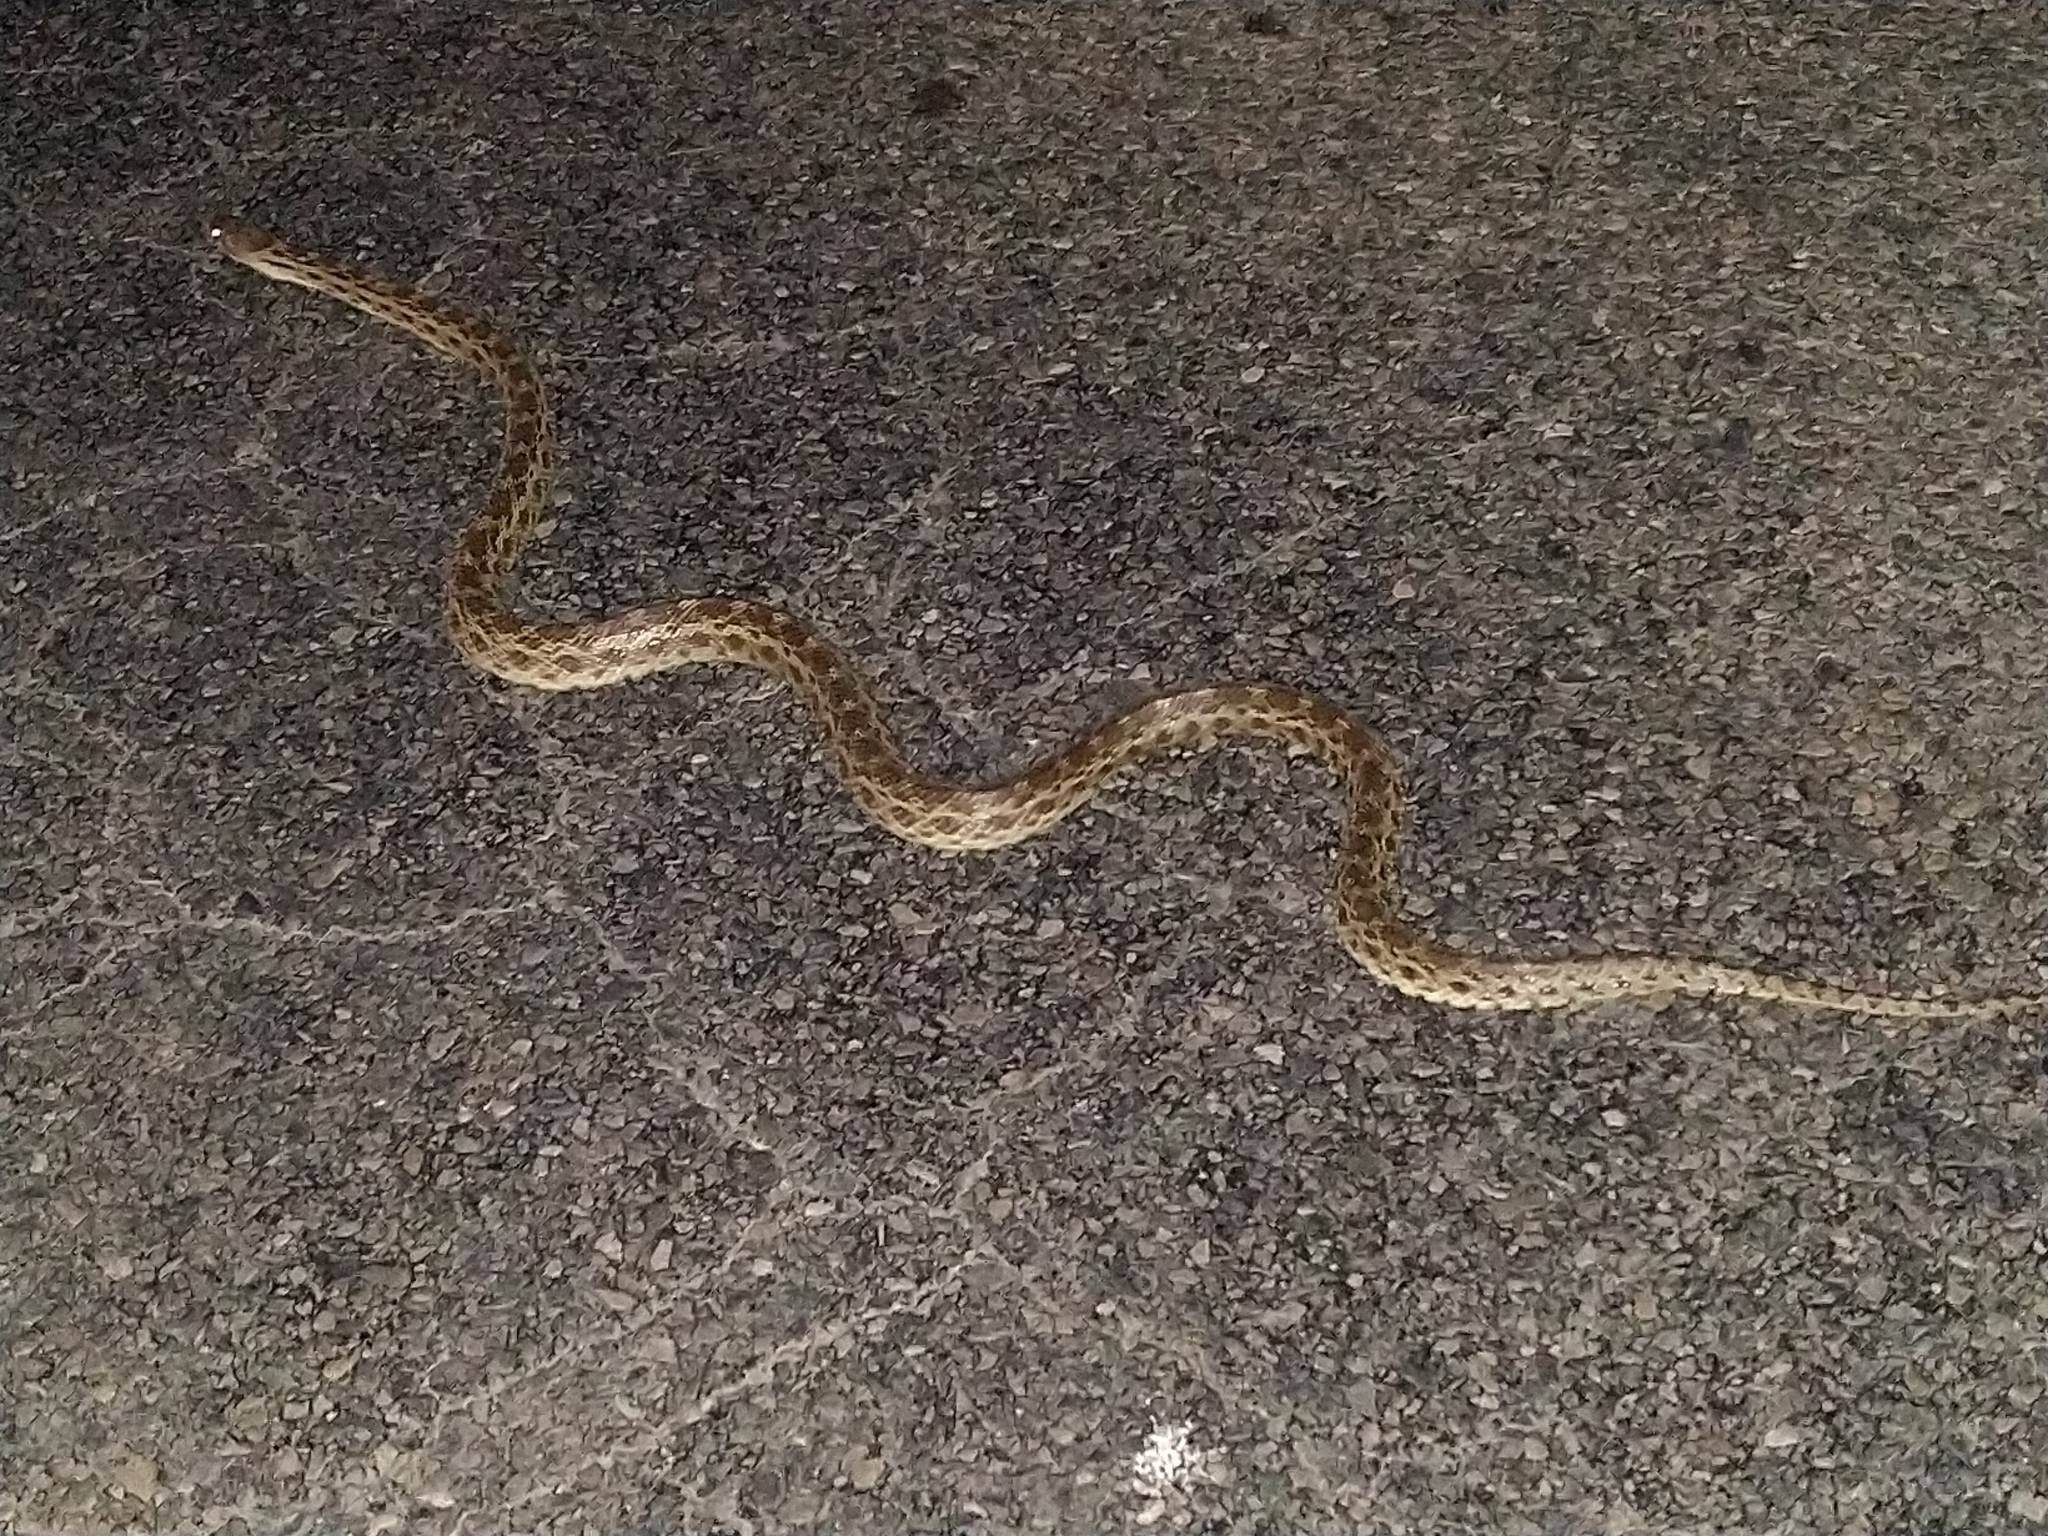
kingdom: Animalia
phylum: Chordata
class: Squamata
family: Colubridae
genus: Pituophis
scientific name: Pituophis catenifer
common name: Gopher snake
